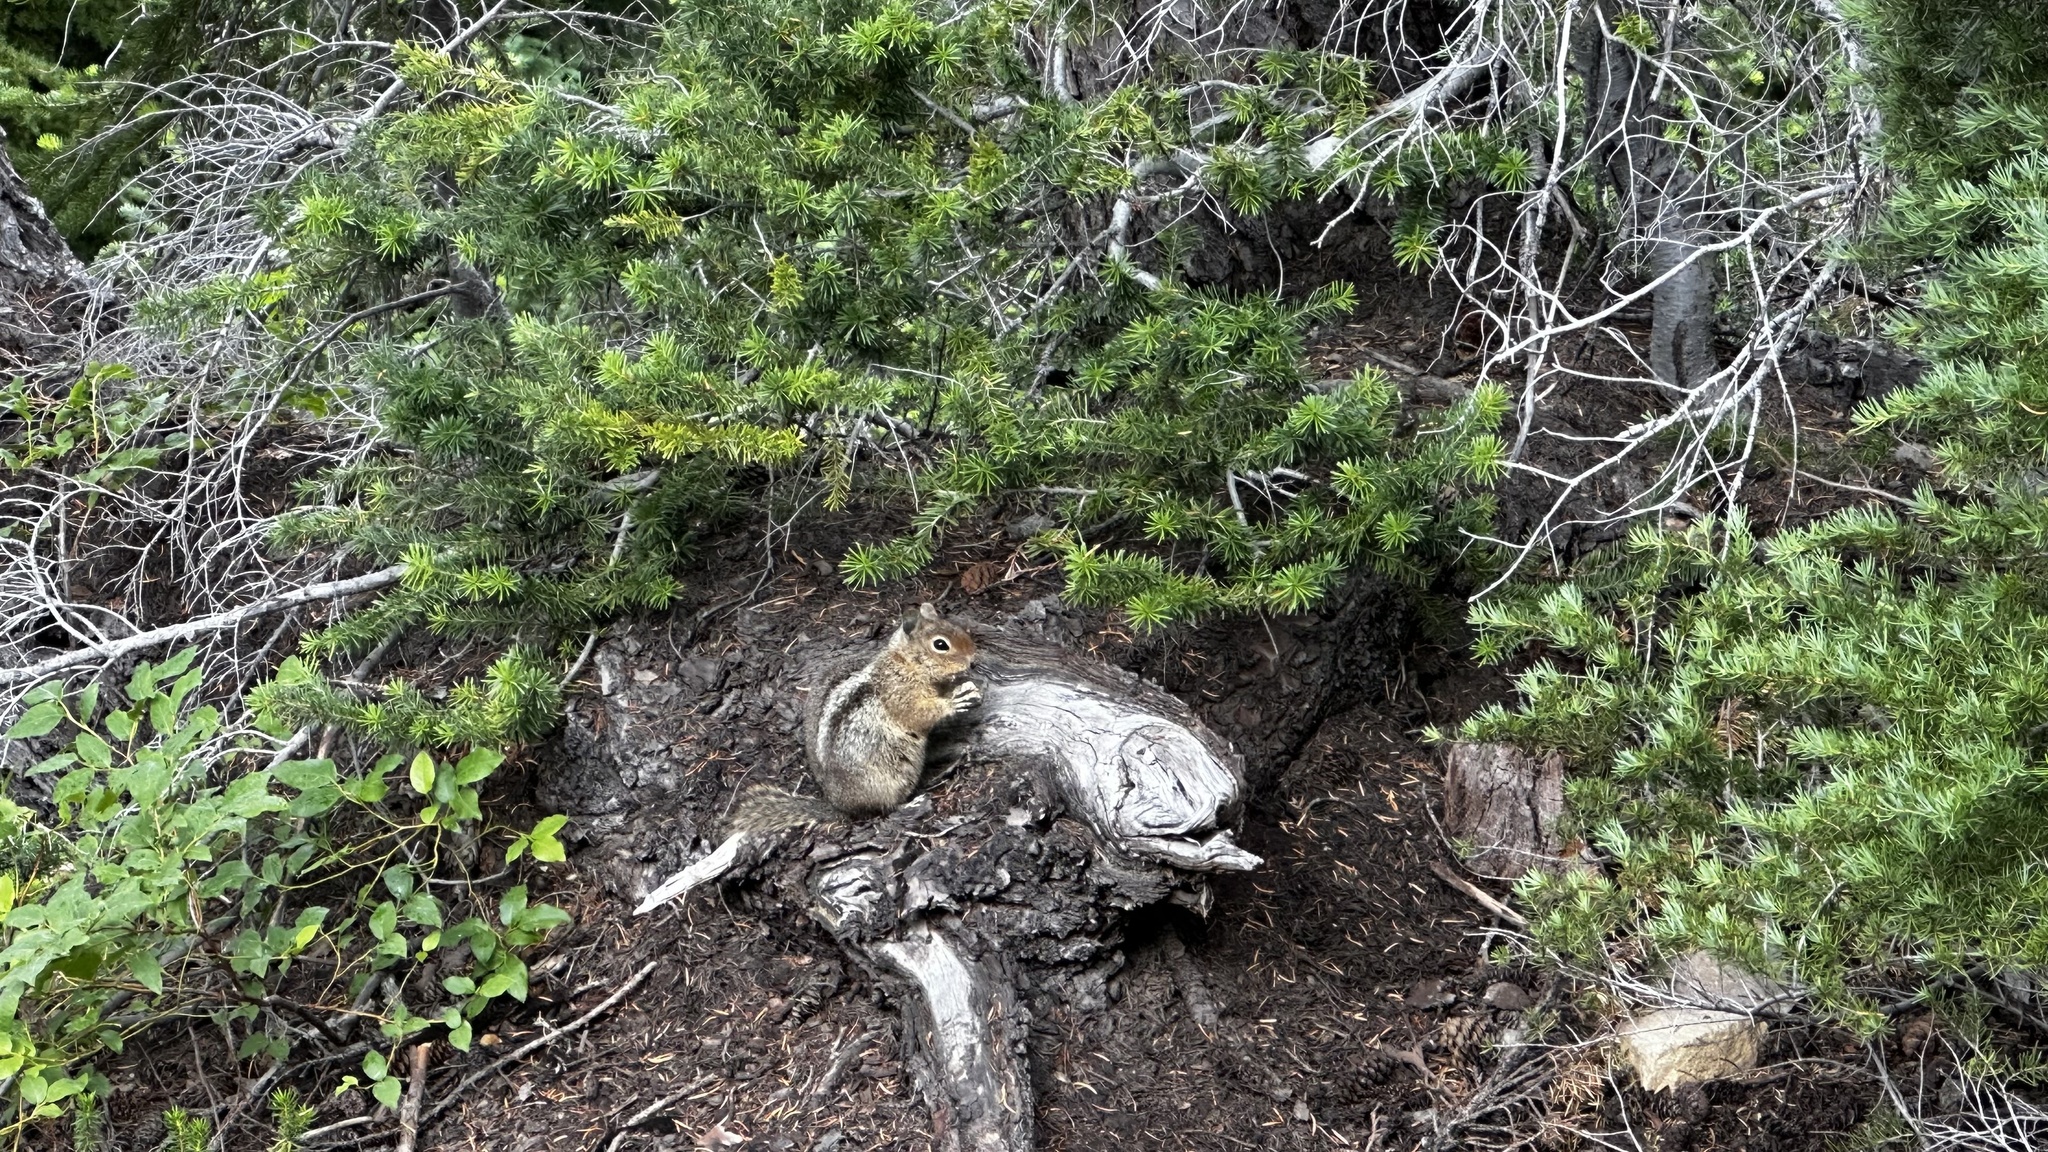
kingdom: Animalia
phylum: Chordata
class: Mammalia
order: Rodentia
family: Sciuridae
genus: Callospermophilus
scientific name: Callospermophilus saturatus
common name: Cascade golden-mantled ground squirrel
